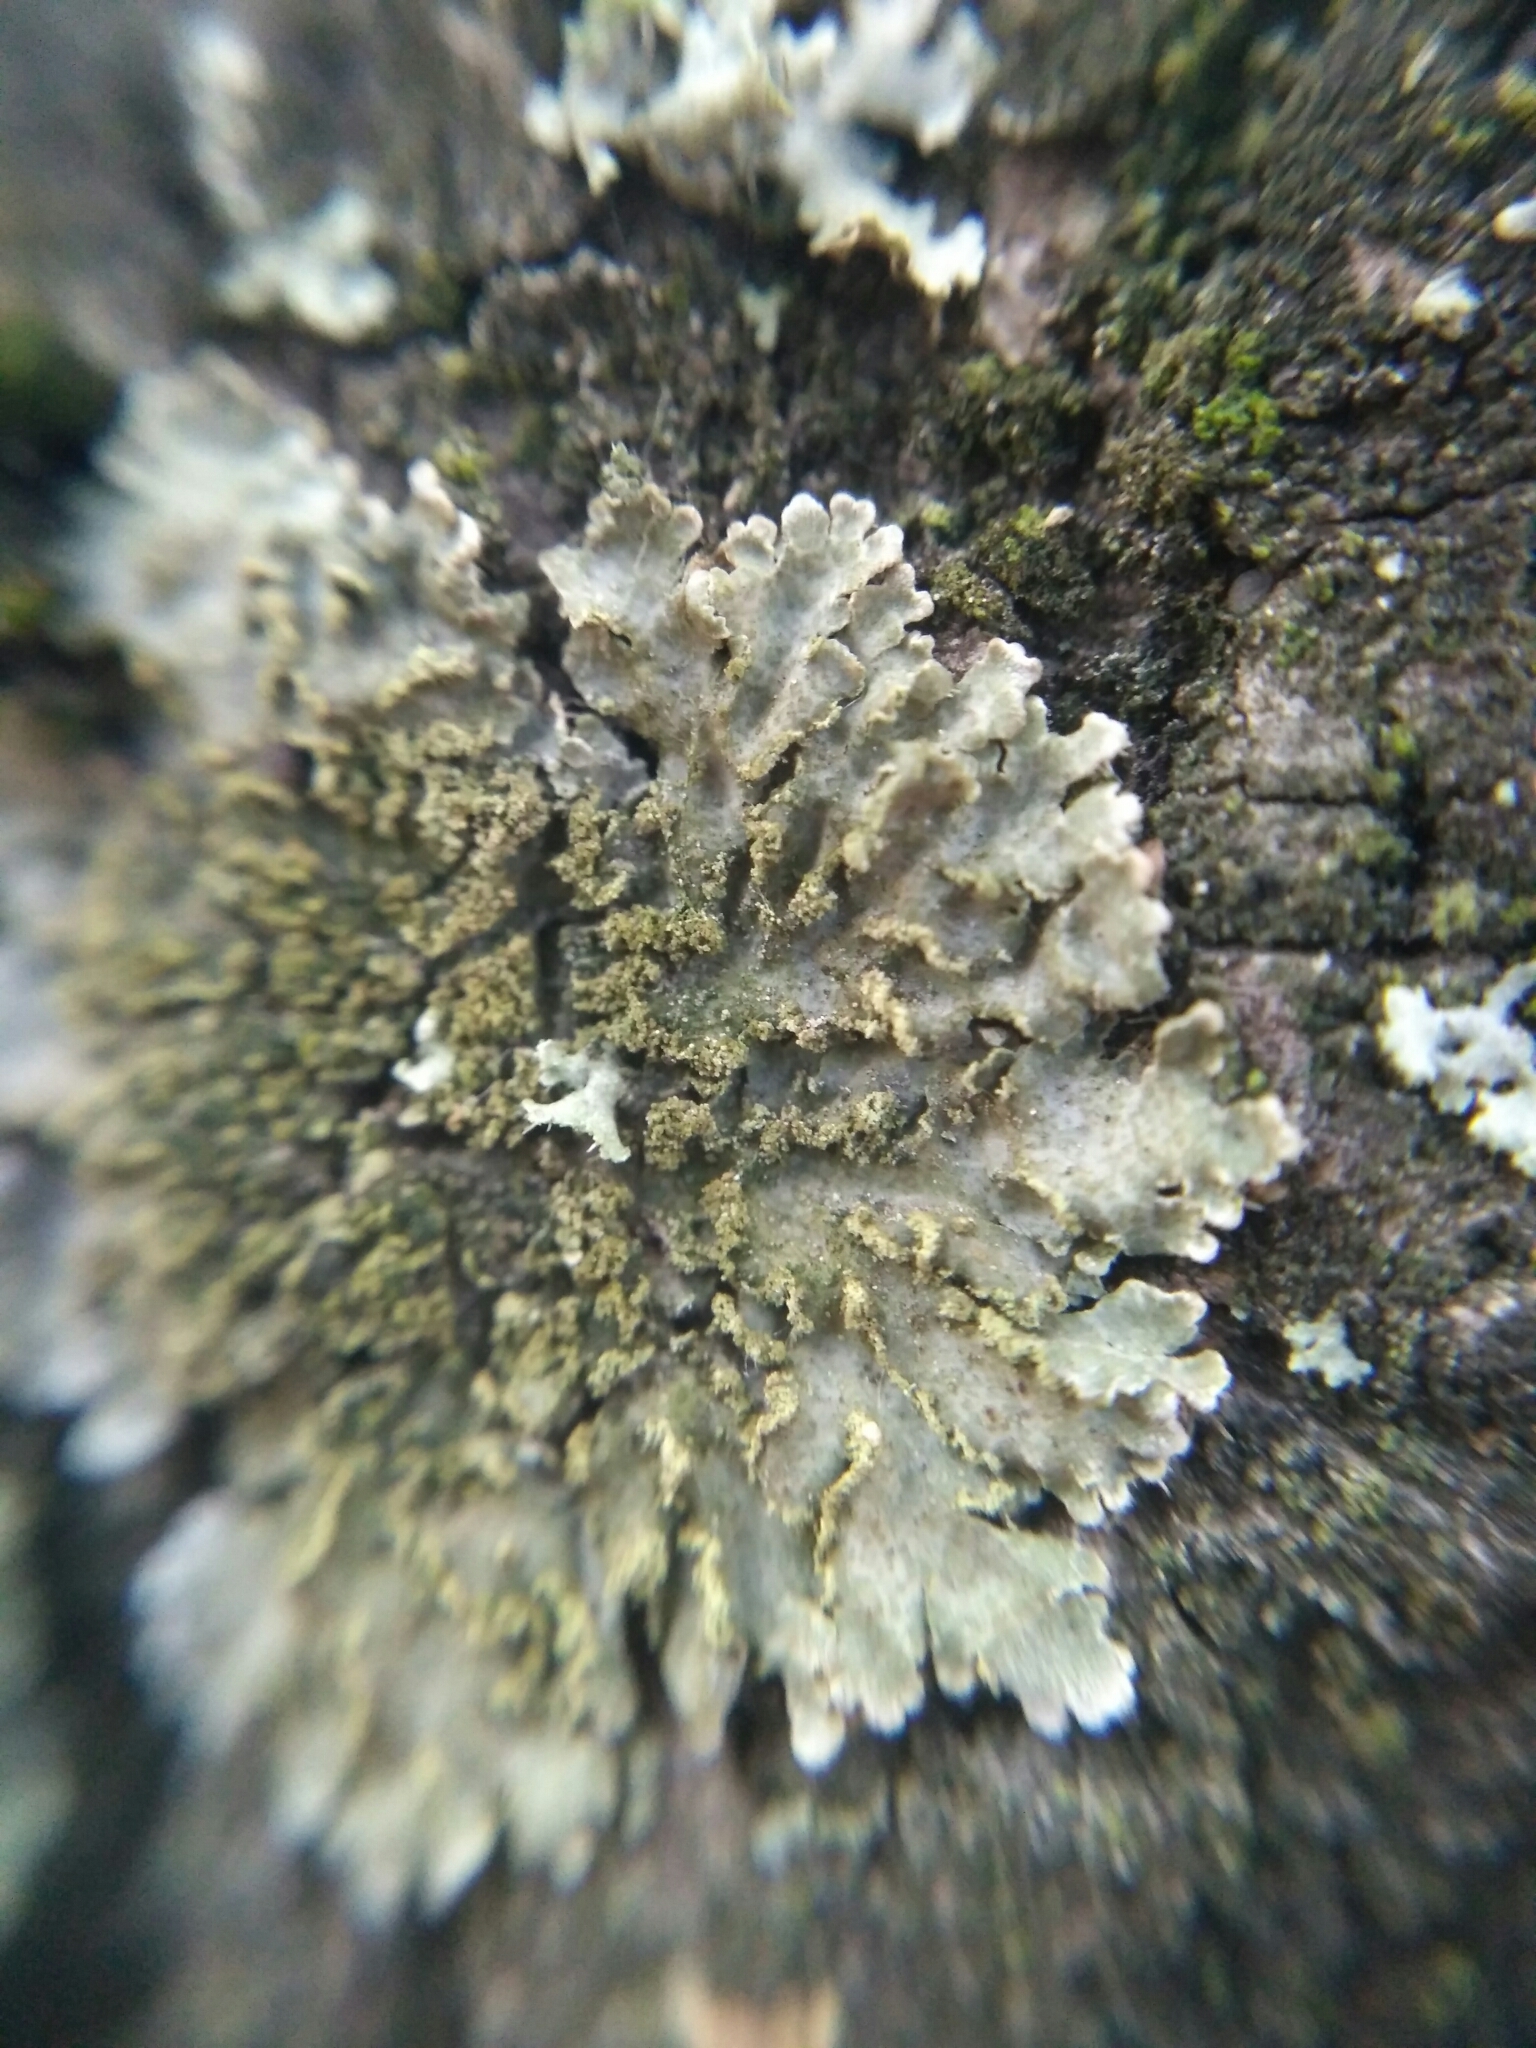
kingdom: Fungi
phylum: Ascomycota
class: Lecanoromycetes
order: Caliciales
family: Physciaceae
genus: Poeltonia
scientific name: Poeltonia grisea
